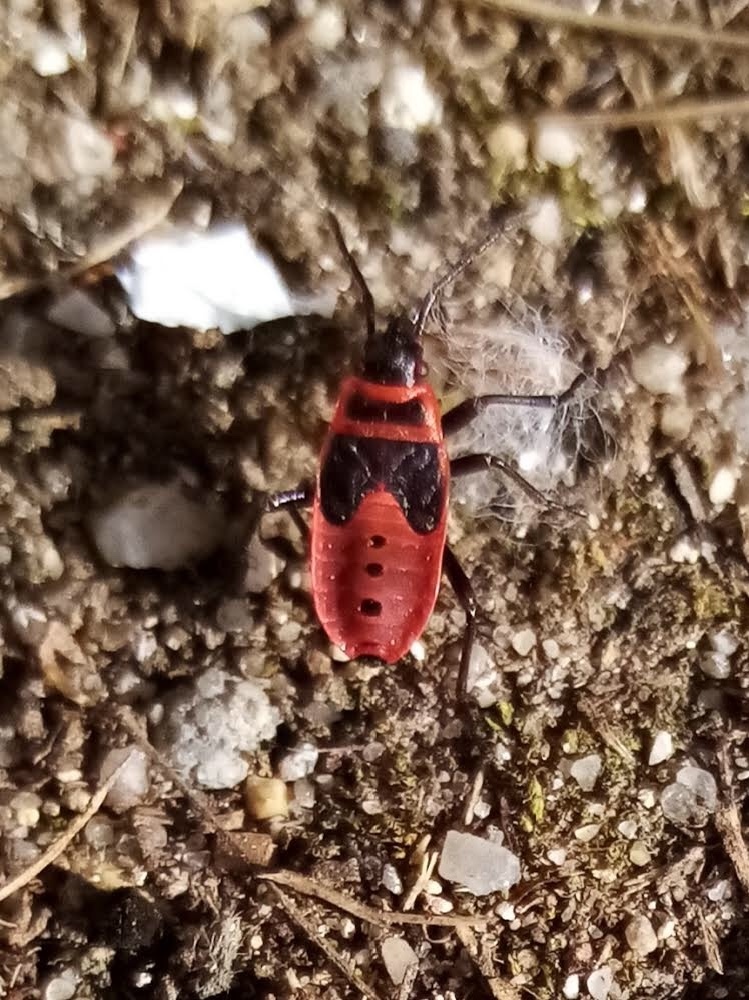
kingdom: Animalia
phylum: Arthropoda
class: Insecta
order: Hemiptera
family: Pyrrhocoridae
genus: Pyrrhocoris
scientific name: Pyrrhocoris apterus
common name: Firebug
